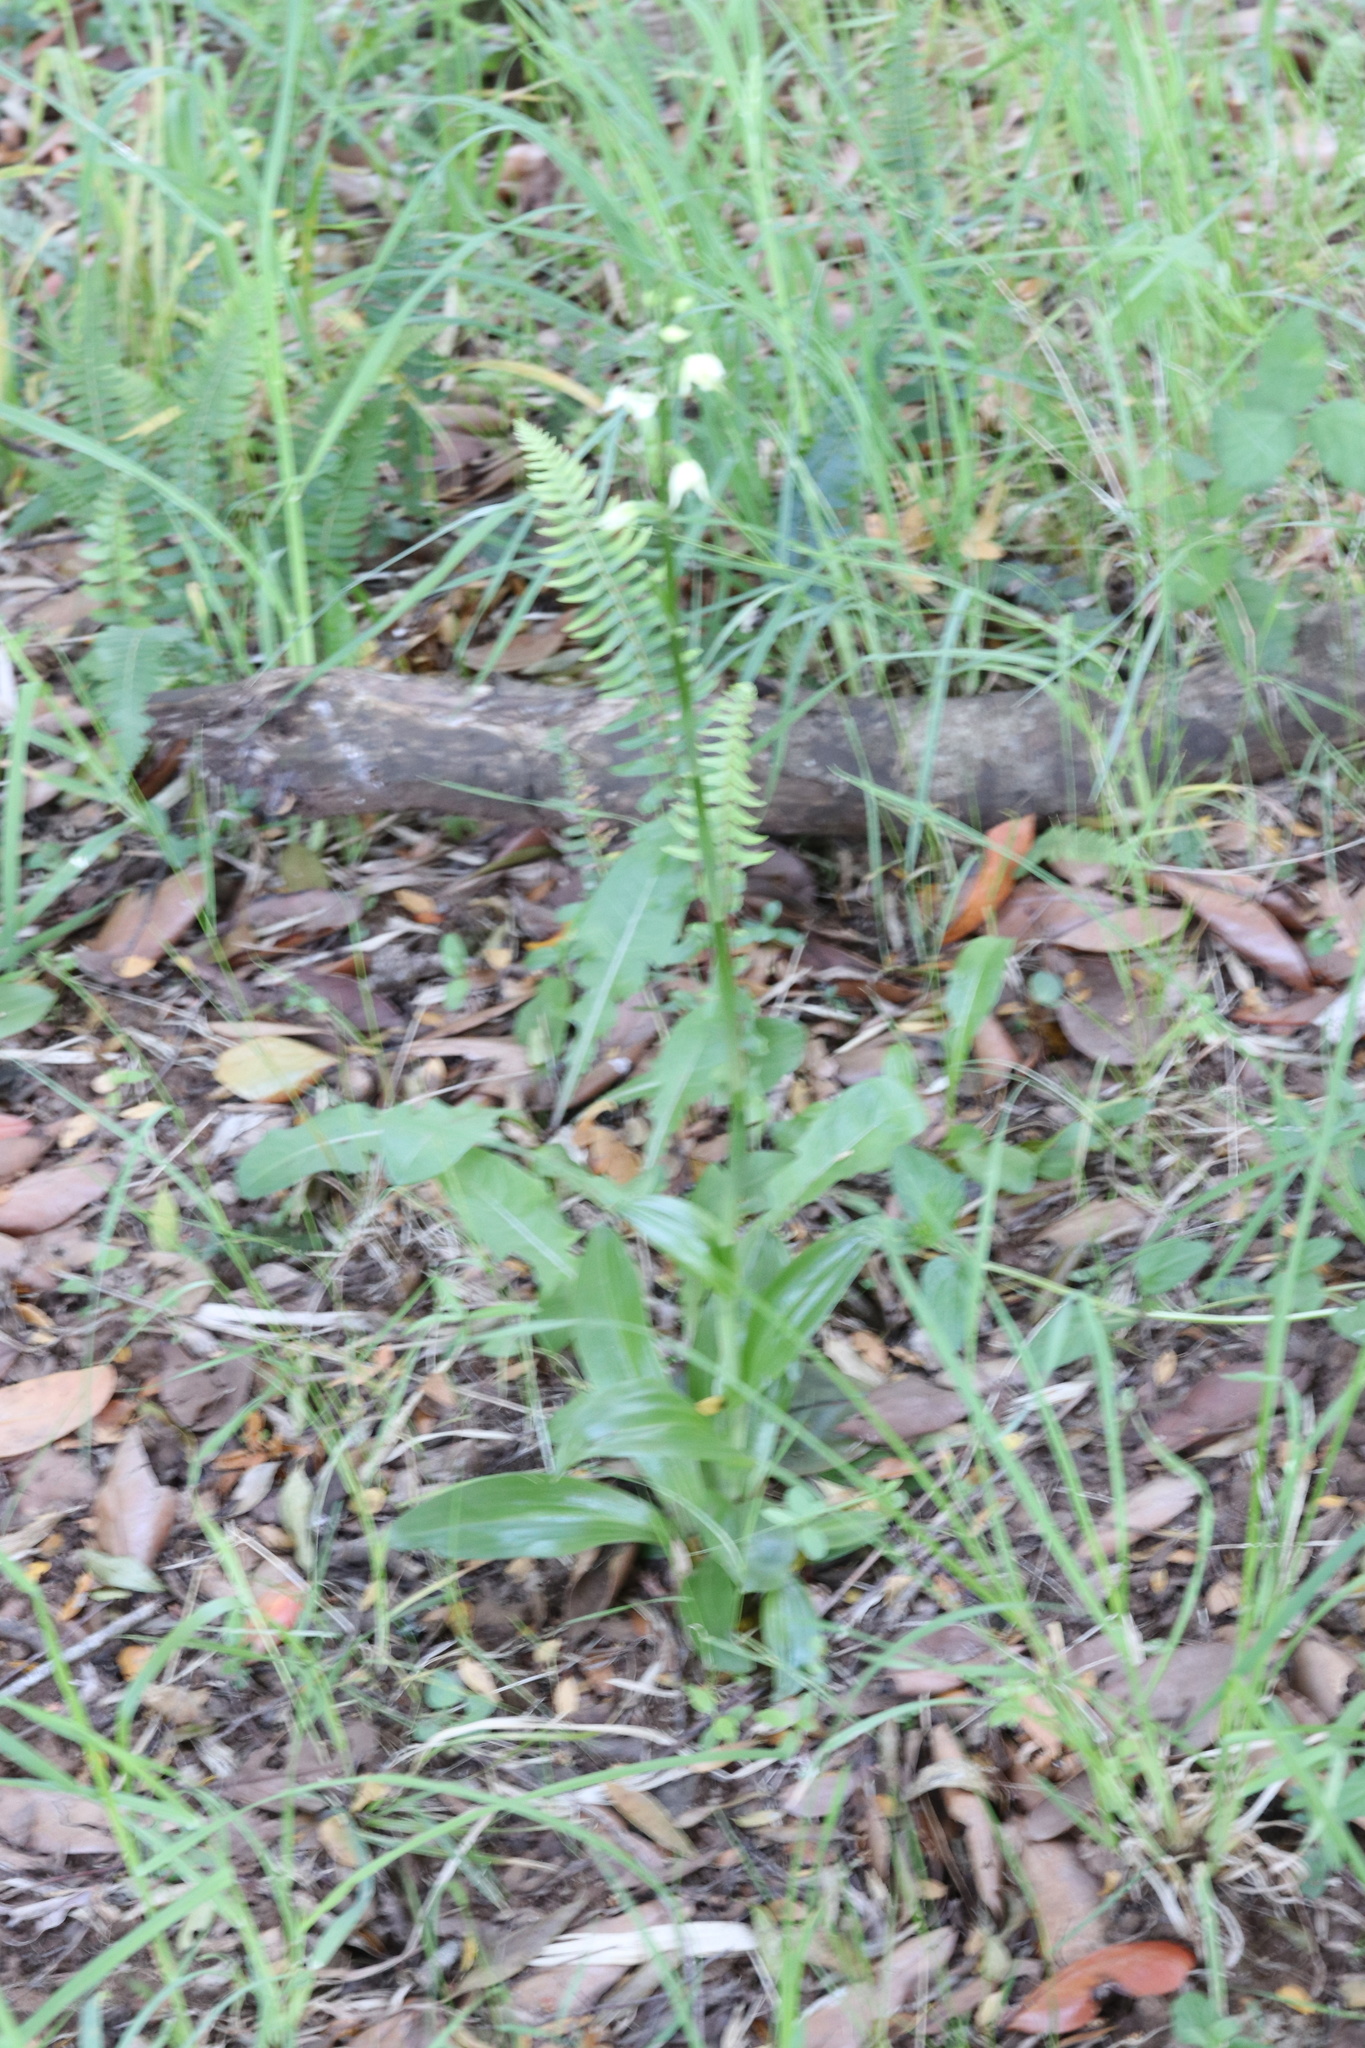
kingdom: Plantae
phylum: Tracheophyta
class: Liliopsida
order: Asparagales
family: Orchidaceae
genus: Gavilea
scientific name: Gavilea araucana
